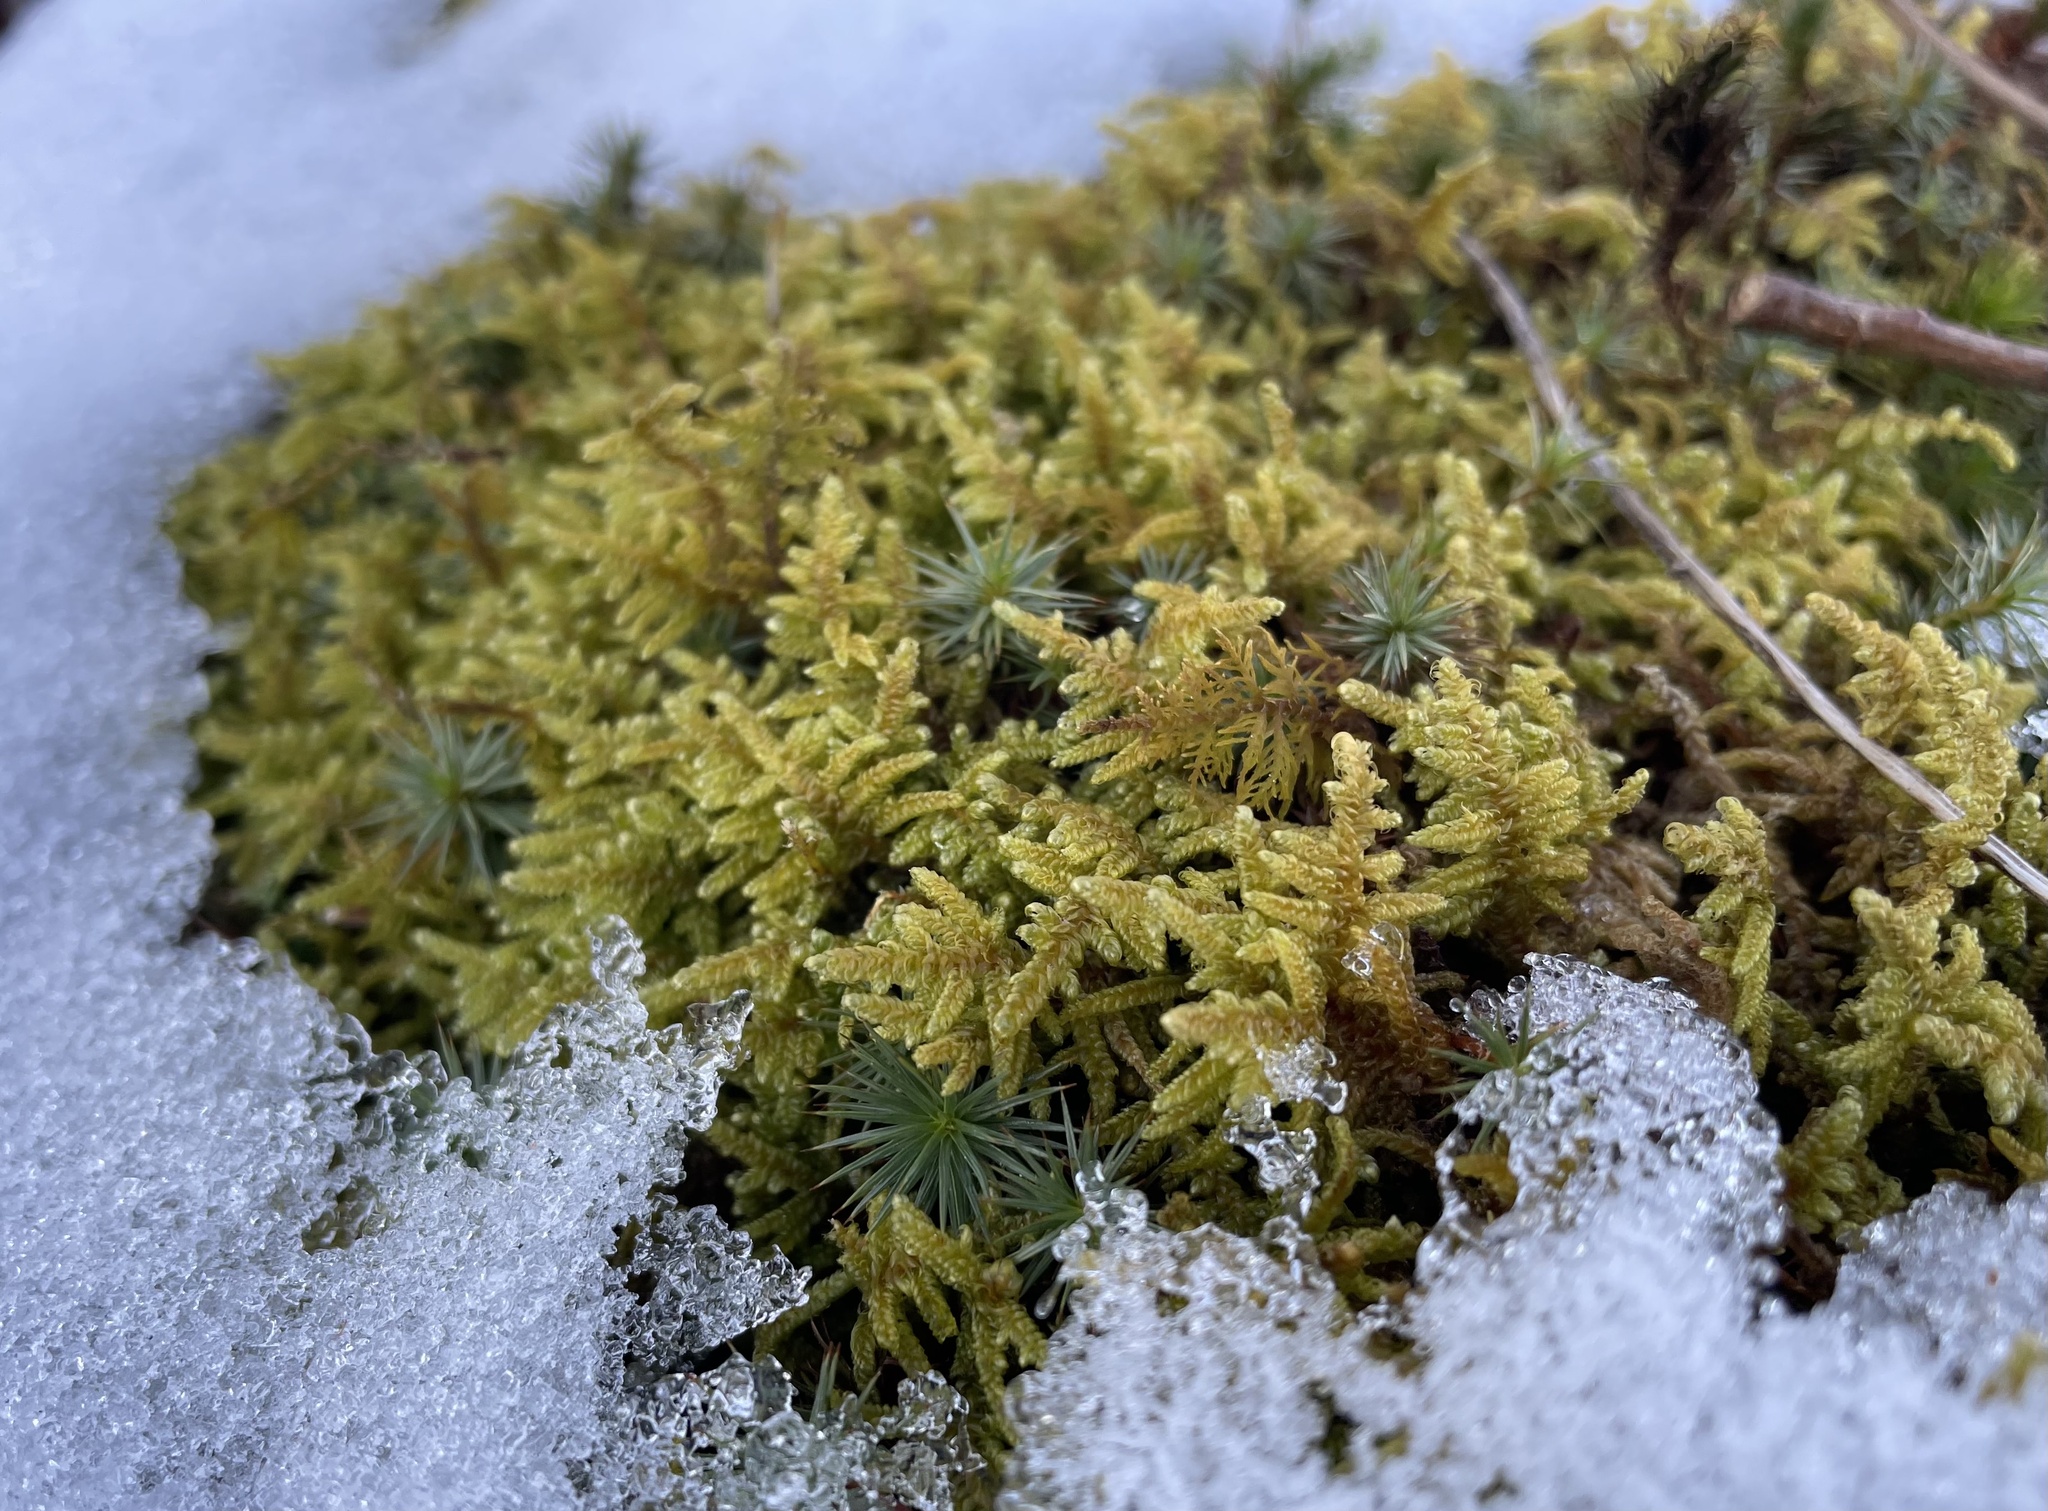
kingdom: Plantae
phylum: Bryophyta
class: Bryopsida
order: Hypnales
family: Callicladiaceae
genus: Callicladium
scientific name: Callicladium imponens
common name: Brocade moss
